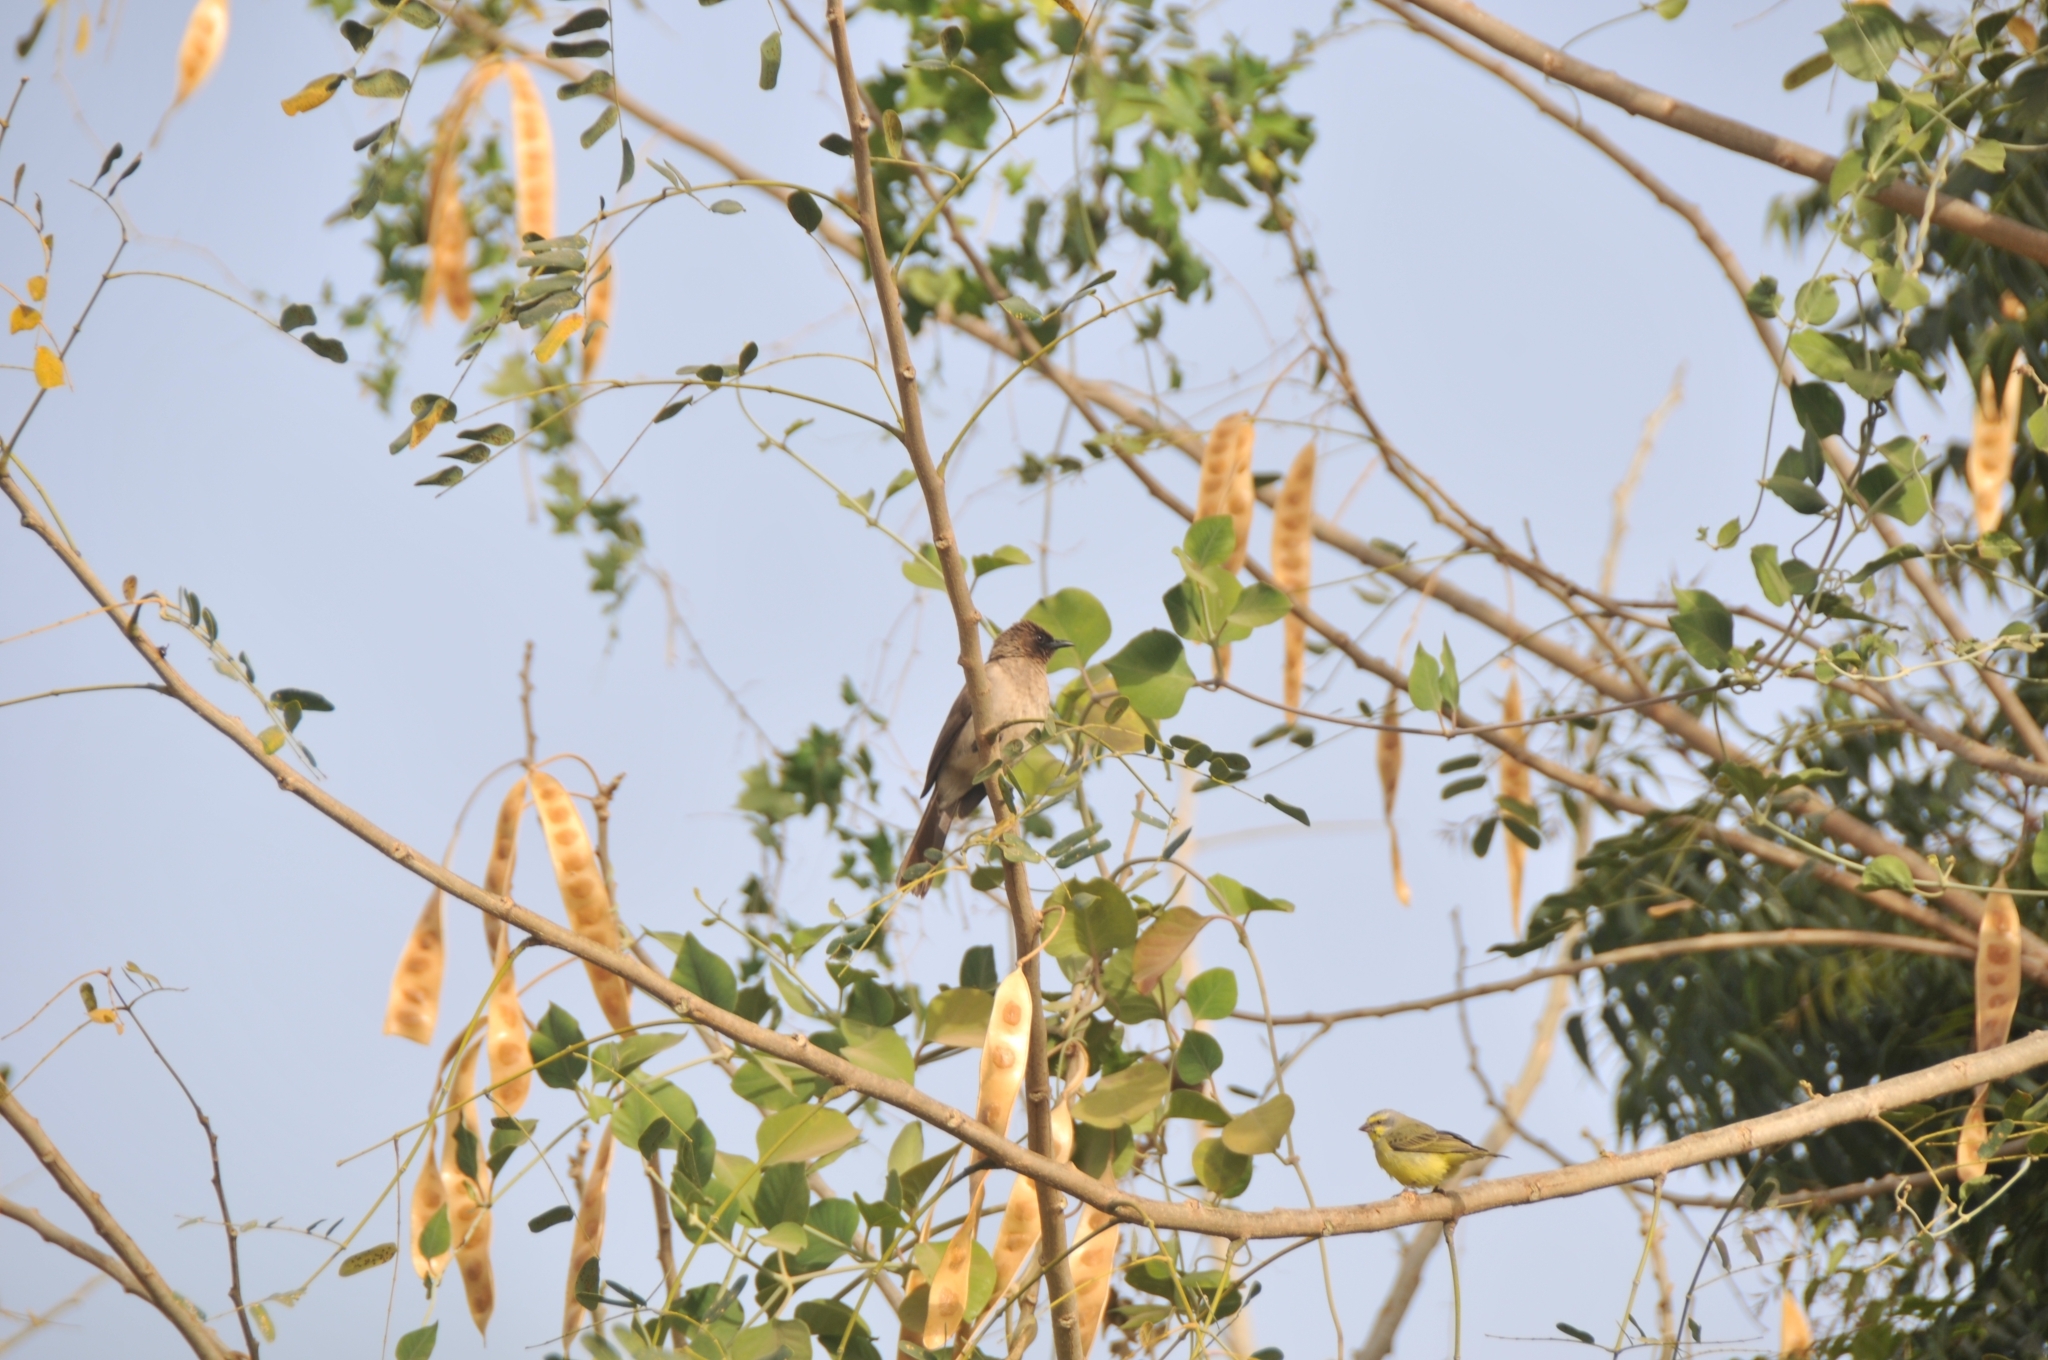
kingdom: Animalia
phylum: Chordata
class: Aves
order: Passeriformes
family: Pycnonotidae
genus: Pycnonotus
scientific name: Pycnonotus barbatus
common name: Common bulbul
